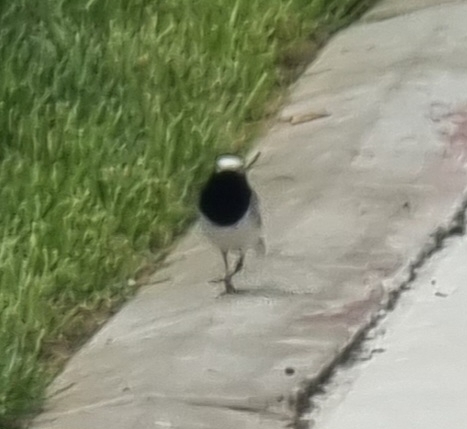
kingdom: Animalia
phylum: Chordata
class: Aves
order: Passeriformes
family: Motacillidae
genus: Motacilla
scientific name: Motacilla alba
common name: White wagtail
